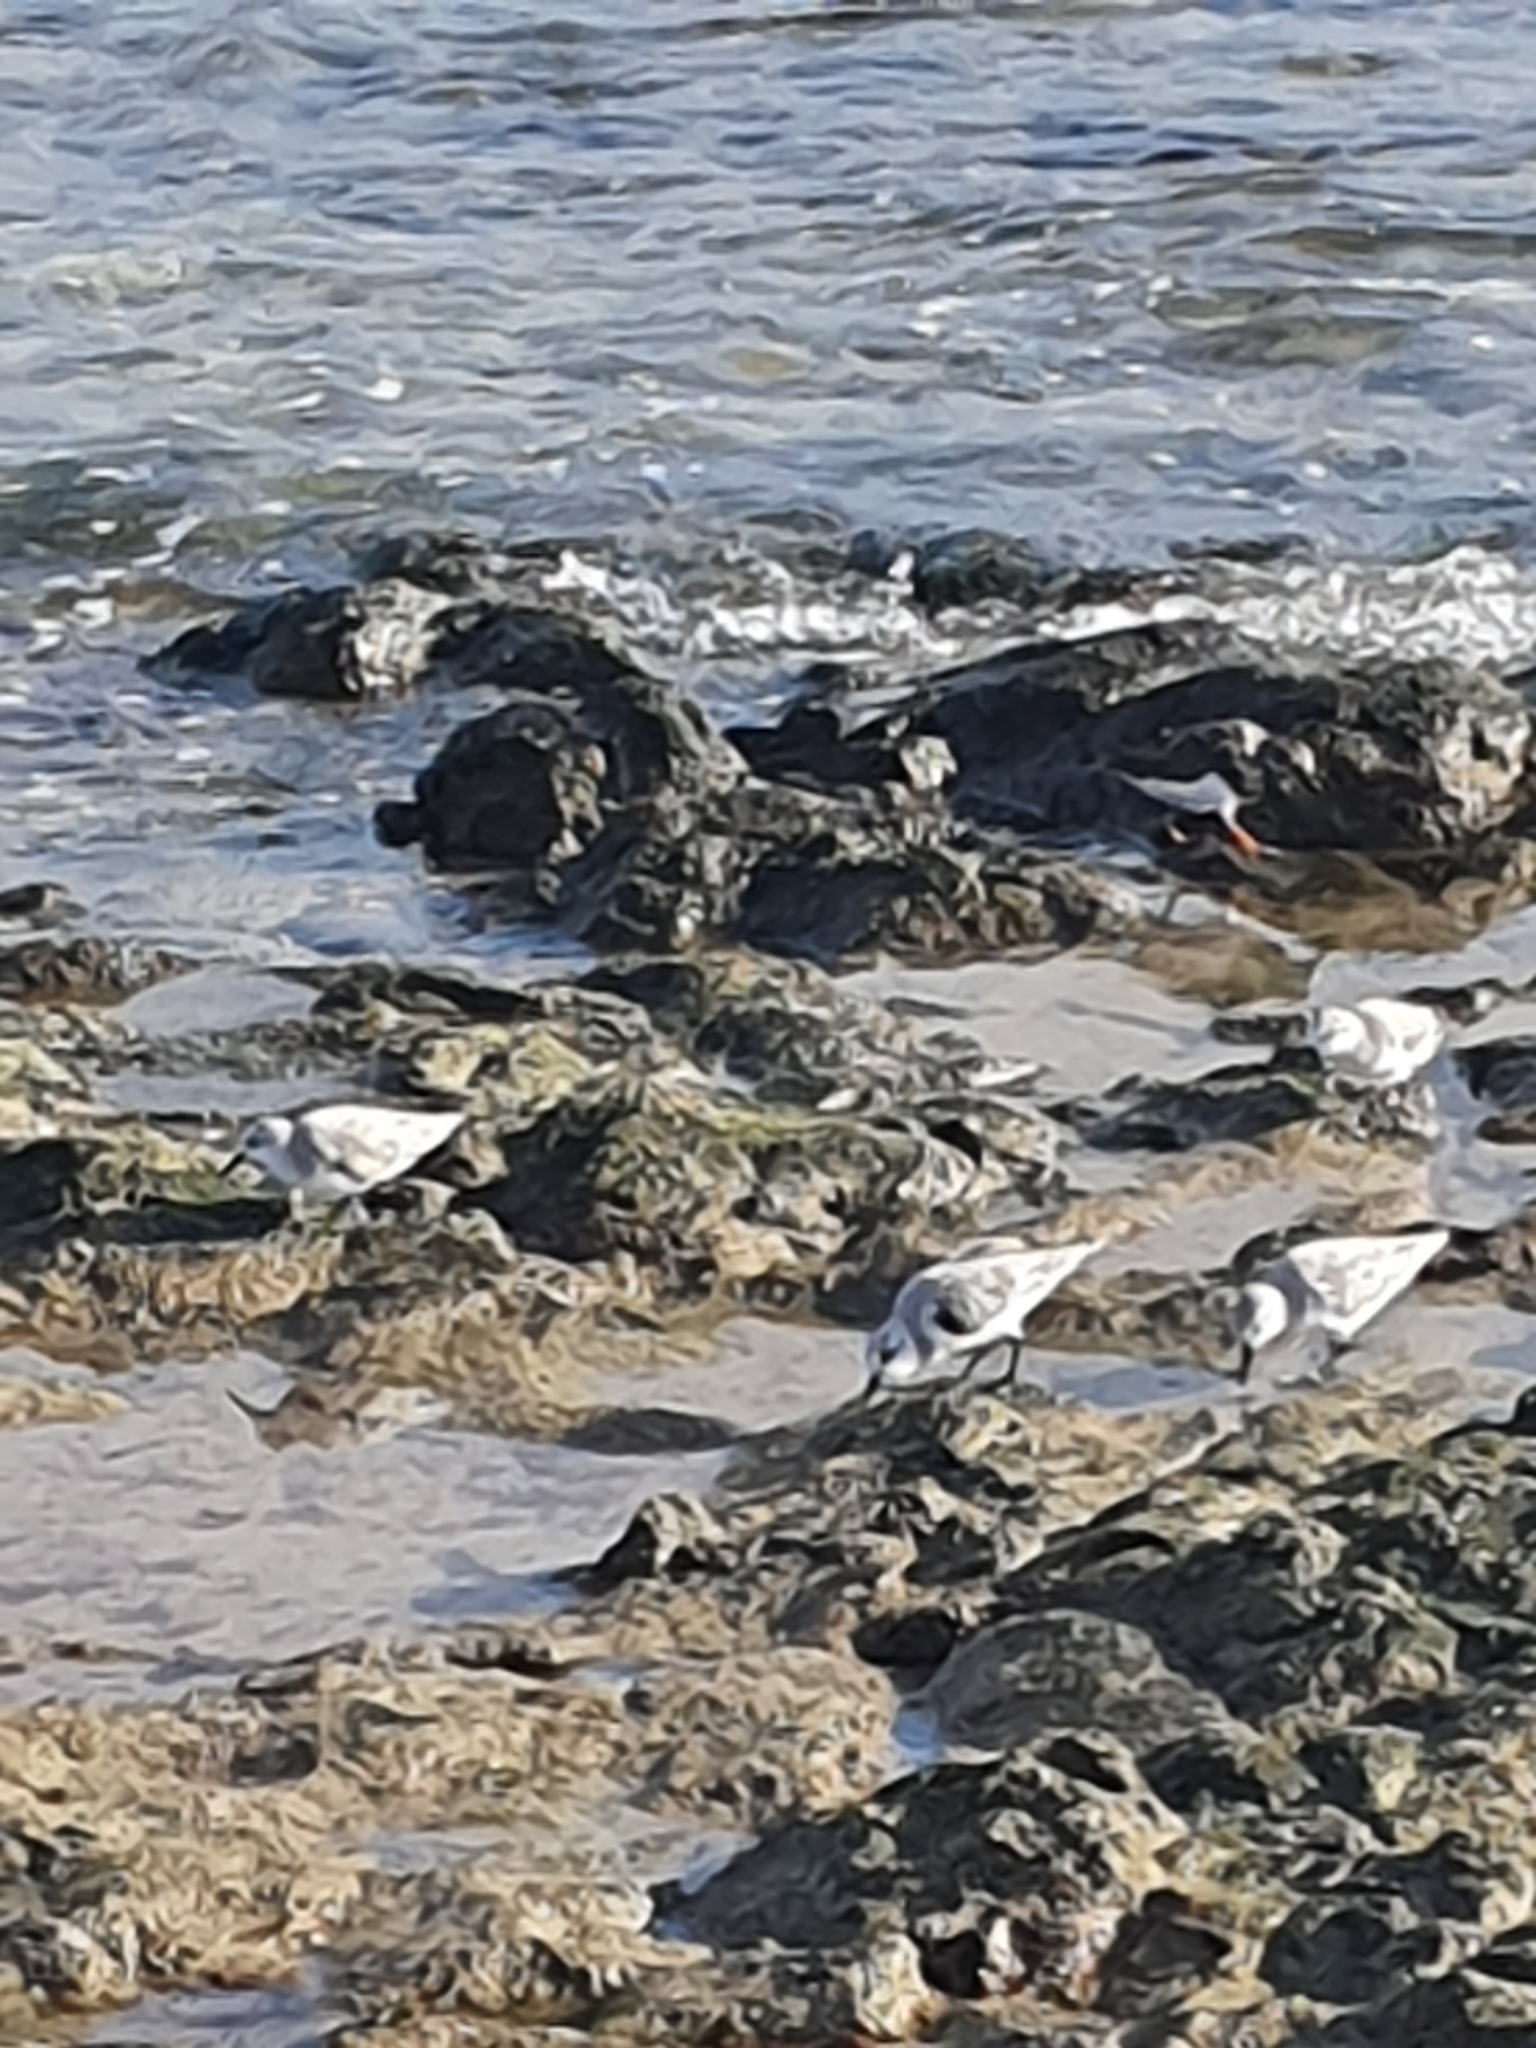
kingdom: Animalia
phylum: Chordata
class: Aves
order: Charadriiformes
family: Scolopacidae
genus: Calidris
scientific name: Calidris alba
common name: Sanderling
